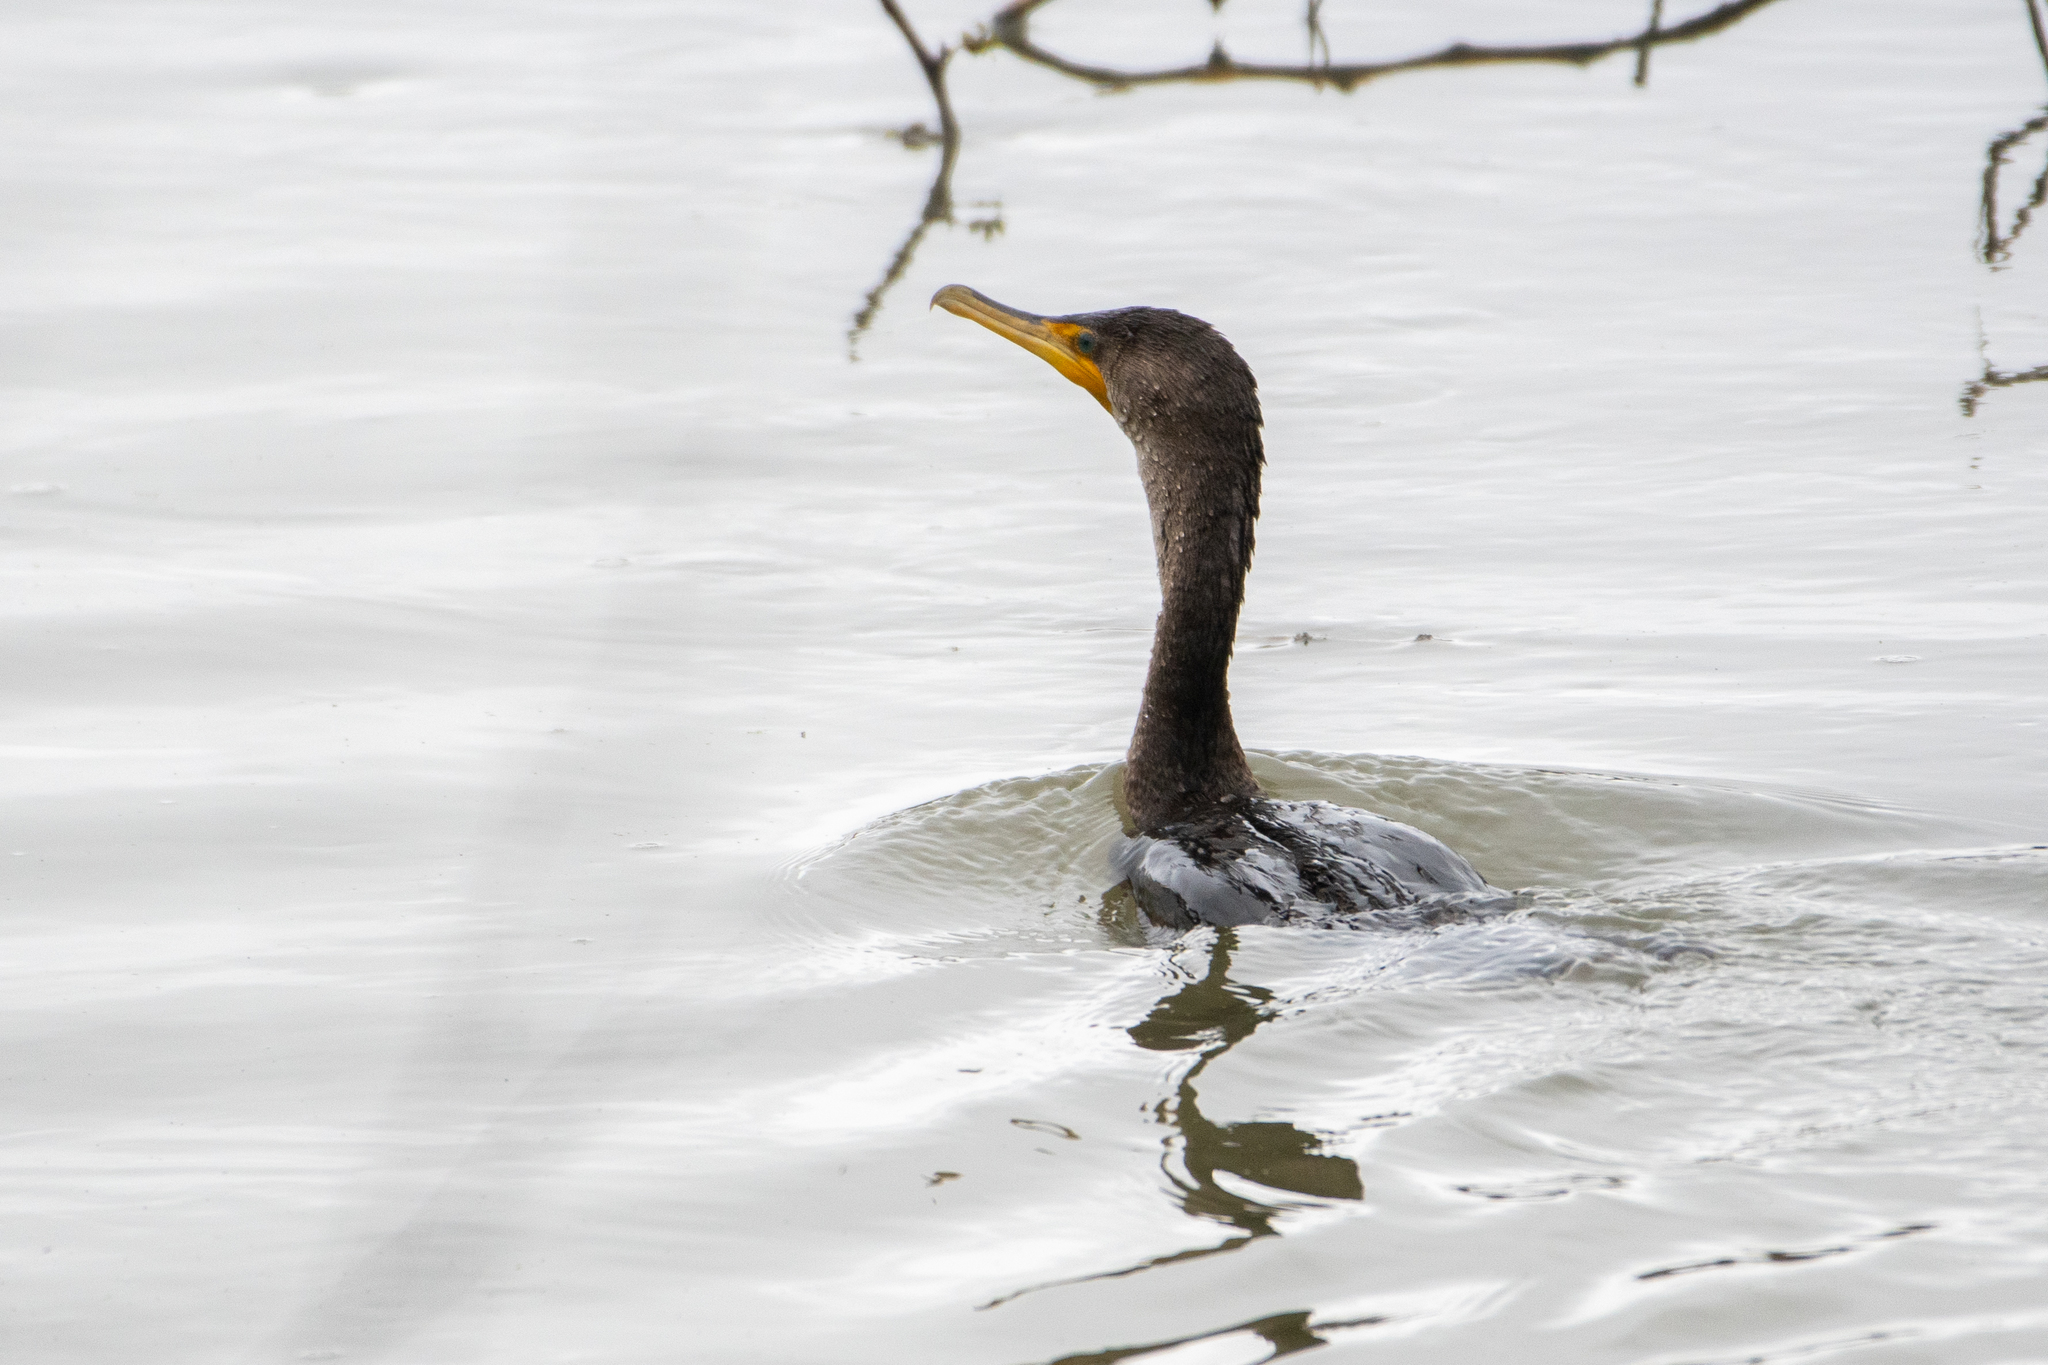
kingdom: Animalia
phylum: Chordata
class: Aves
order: Suliformes
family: Phalacrocoracidae
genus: Phalacrocorax
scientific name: Phalacrocorax auritus
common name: Double-crested cormorant
